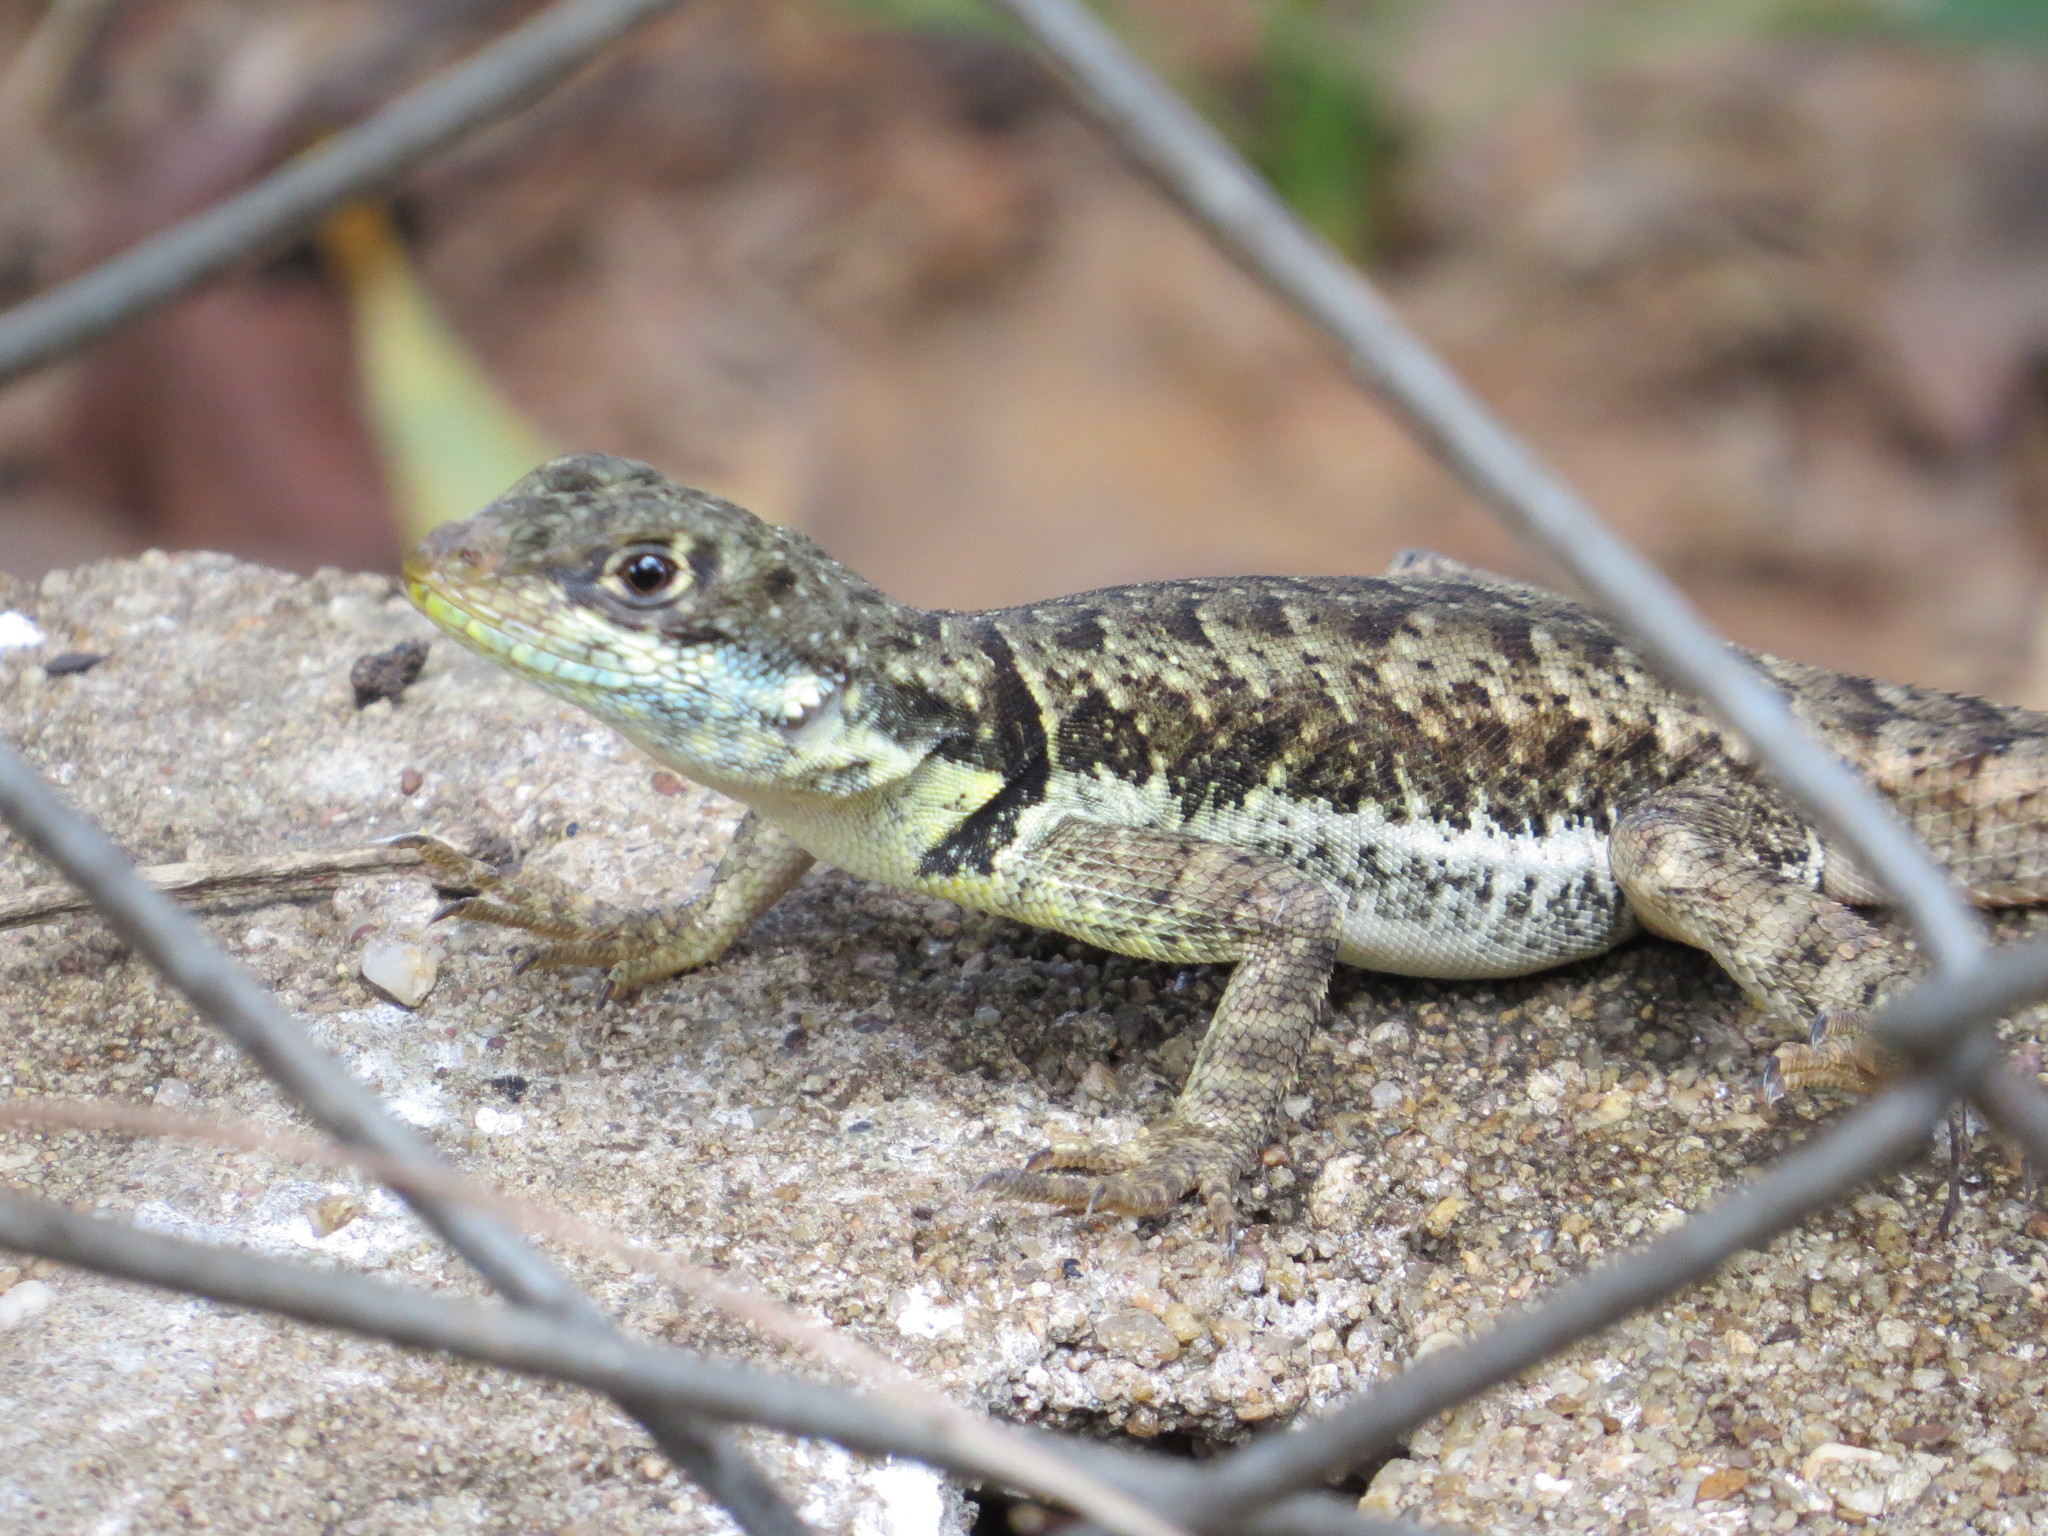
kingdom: Animalia
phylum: Chordata
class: Squamata
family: Tropiduridae
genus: Tropidurus
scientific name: Tropidurus torquatus
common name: Amazon lava lizard
